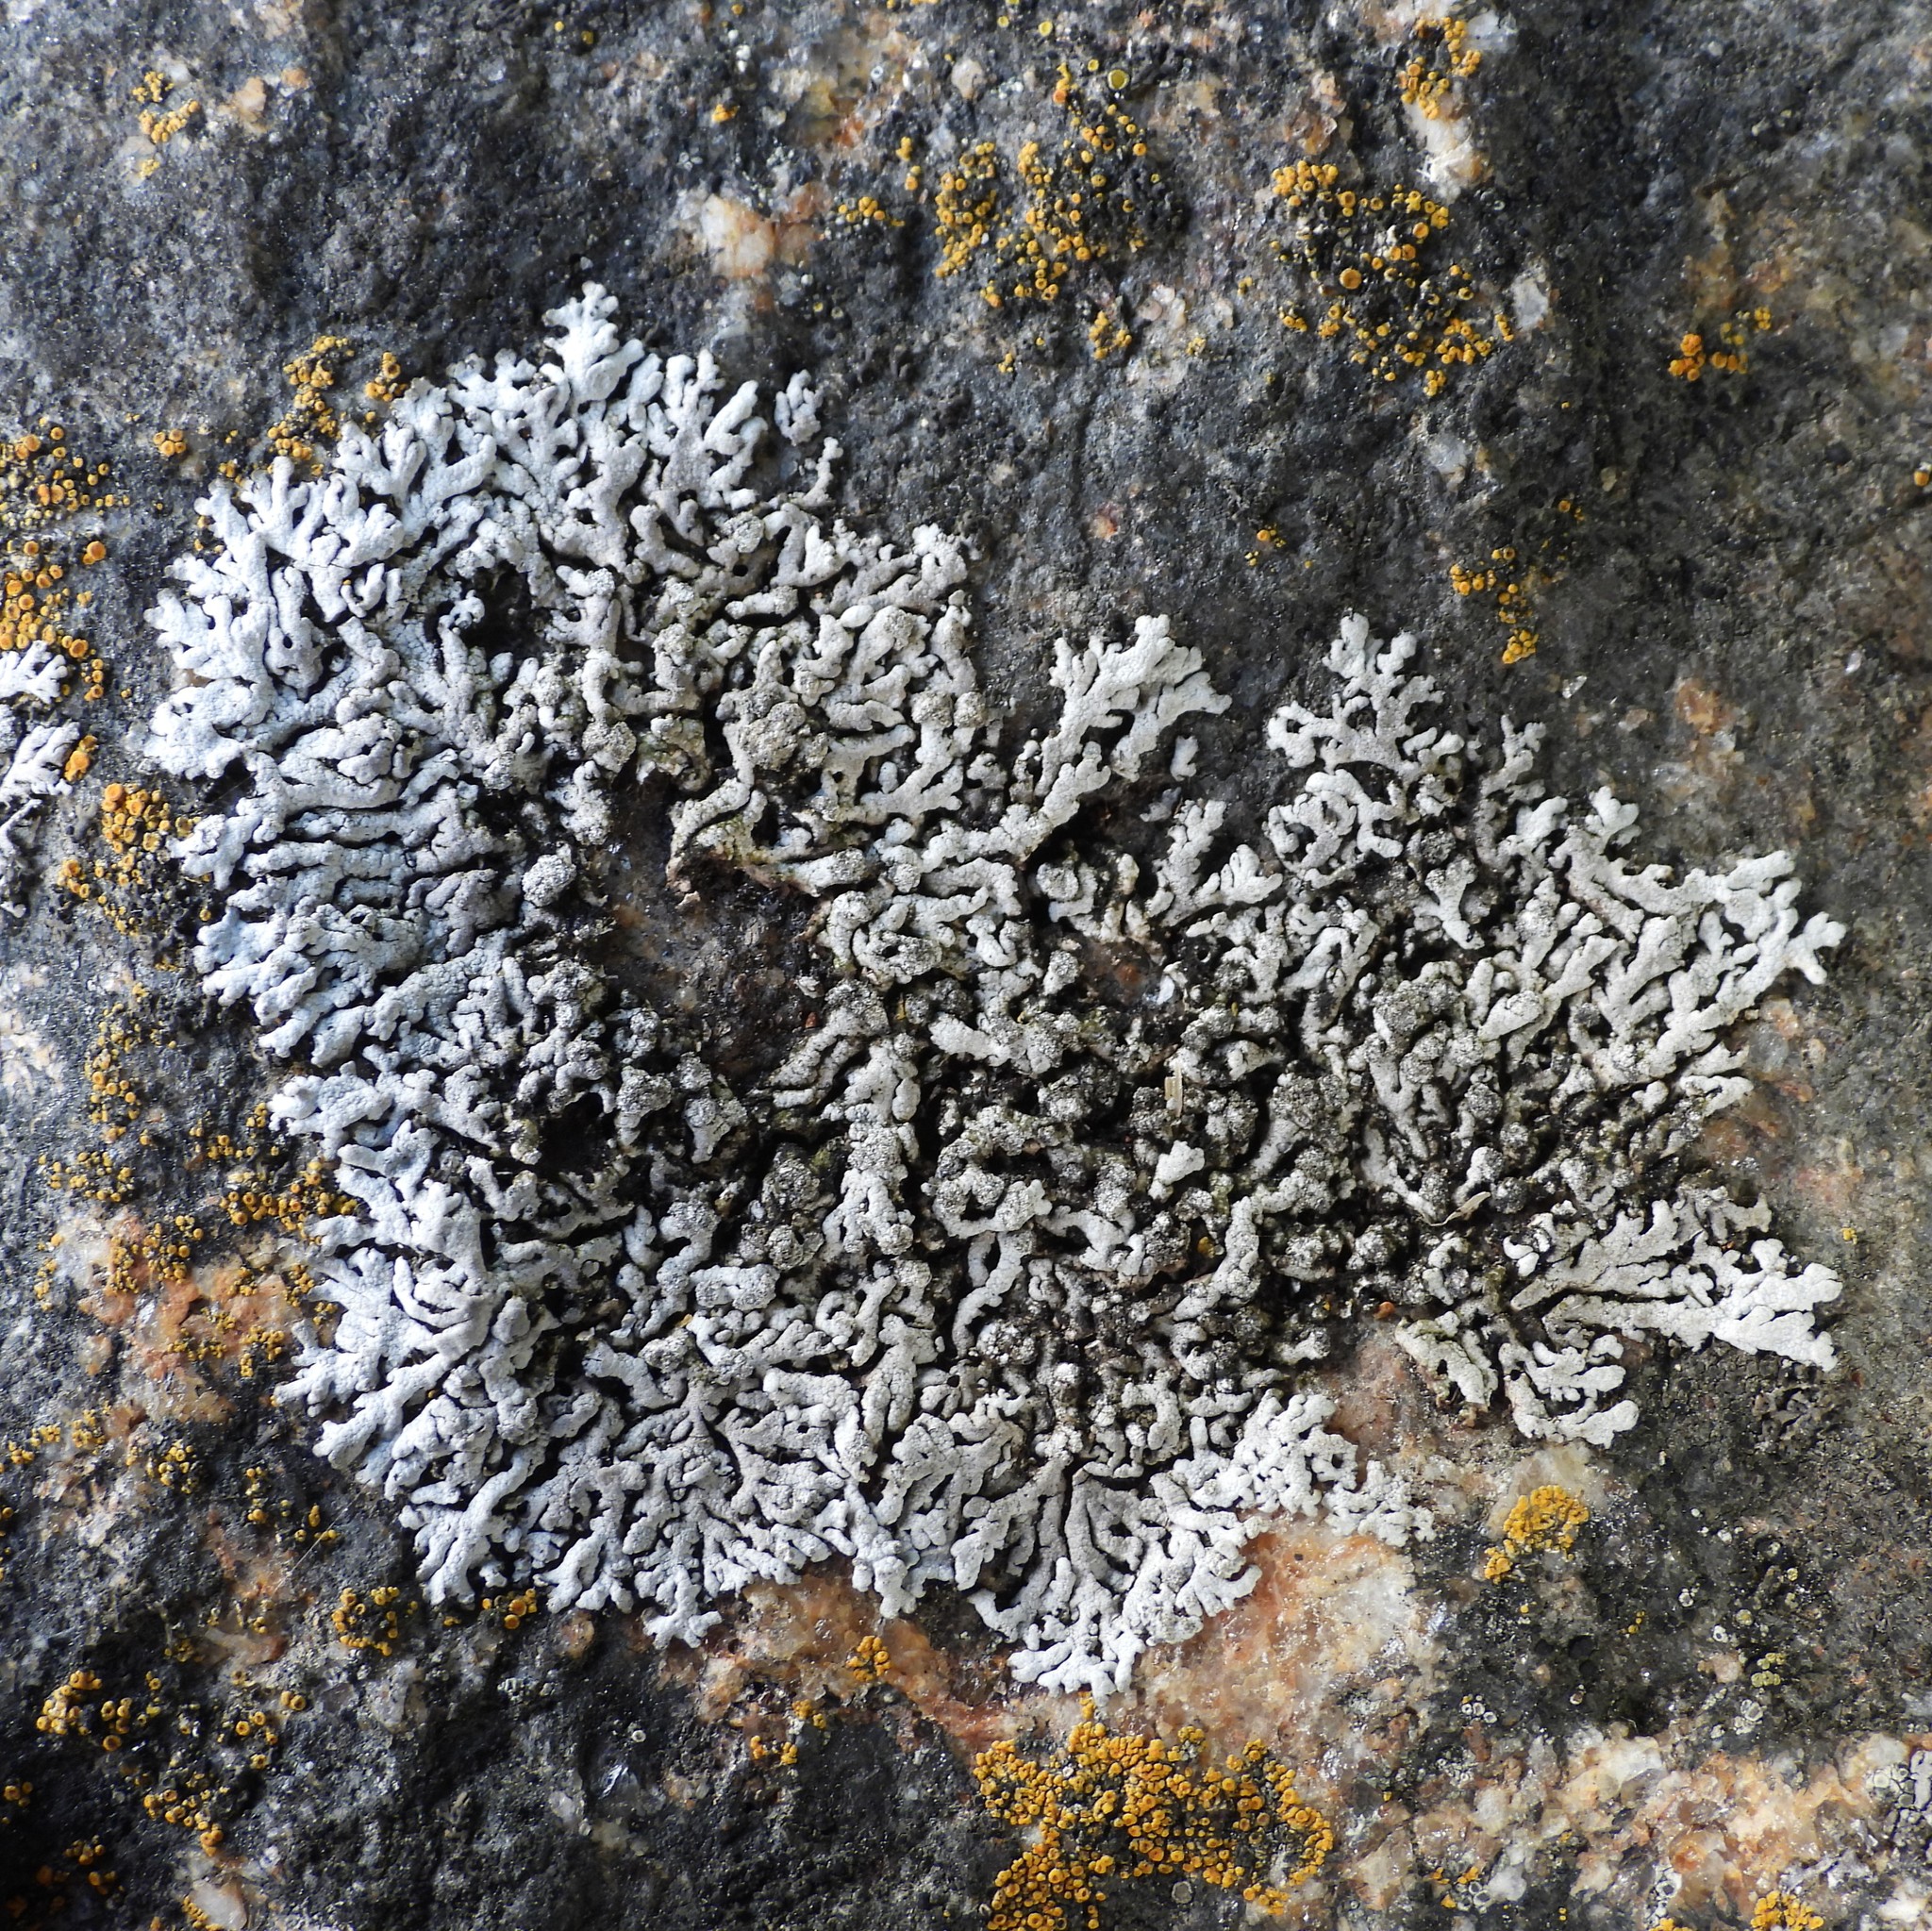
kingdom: Fungi
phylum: Ascomycota
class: Lecanoromycetes
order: Caliciales
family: Physciaceae
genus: Physcia
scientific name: Physcia caesia
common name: Blue-gray rosette lichen
